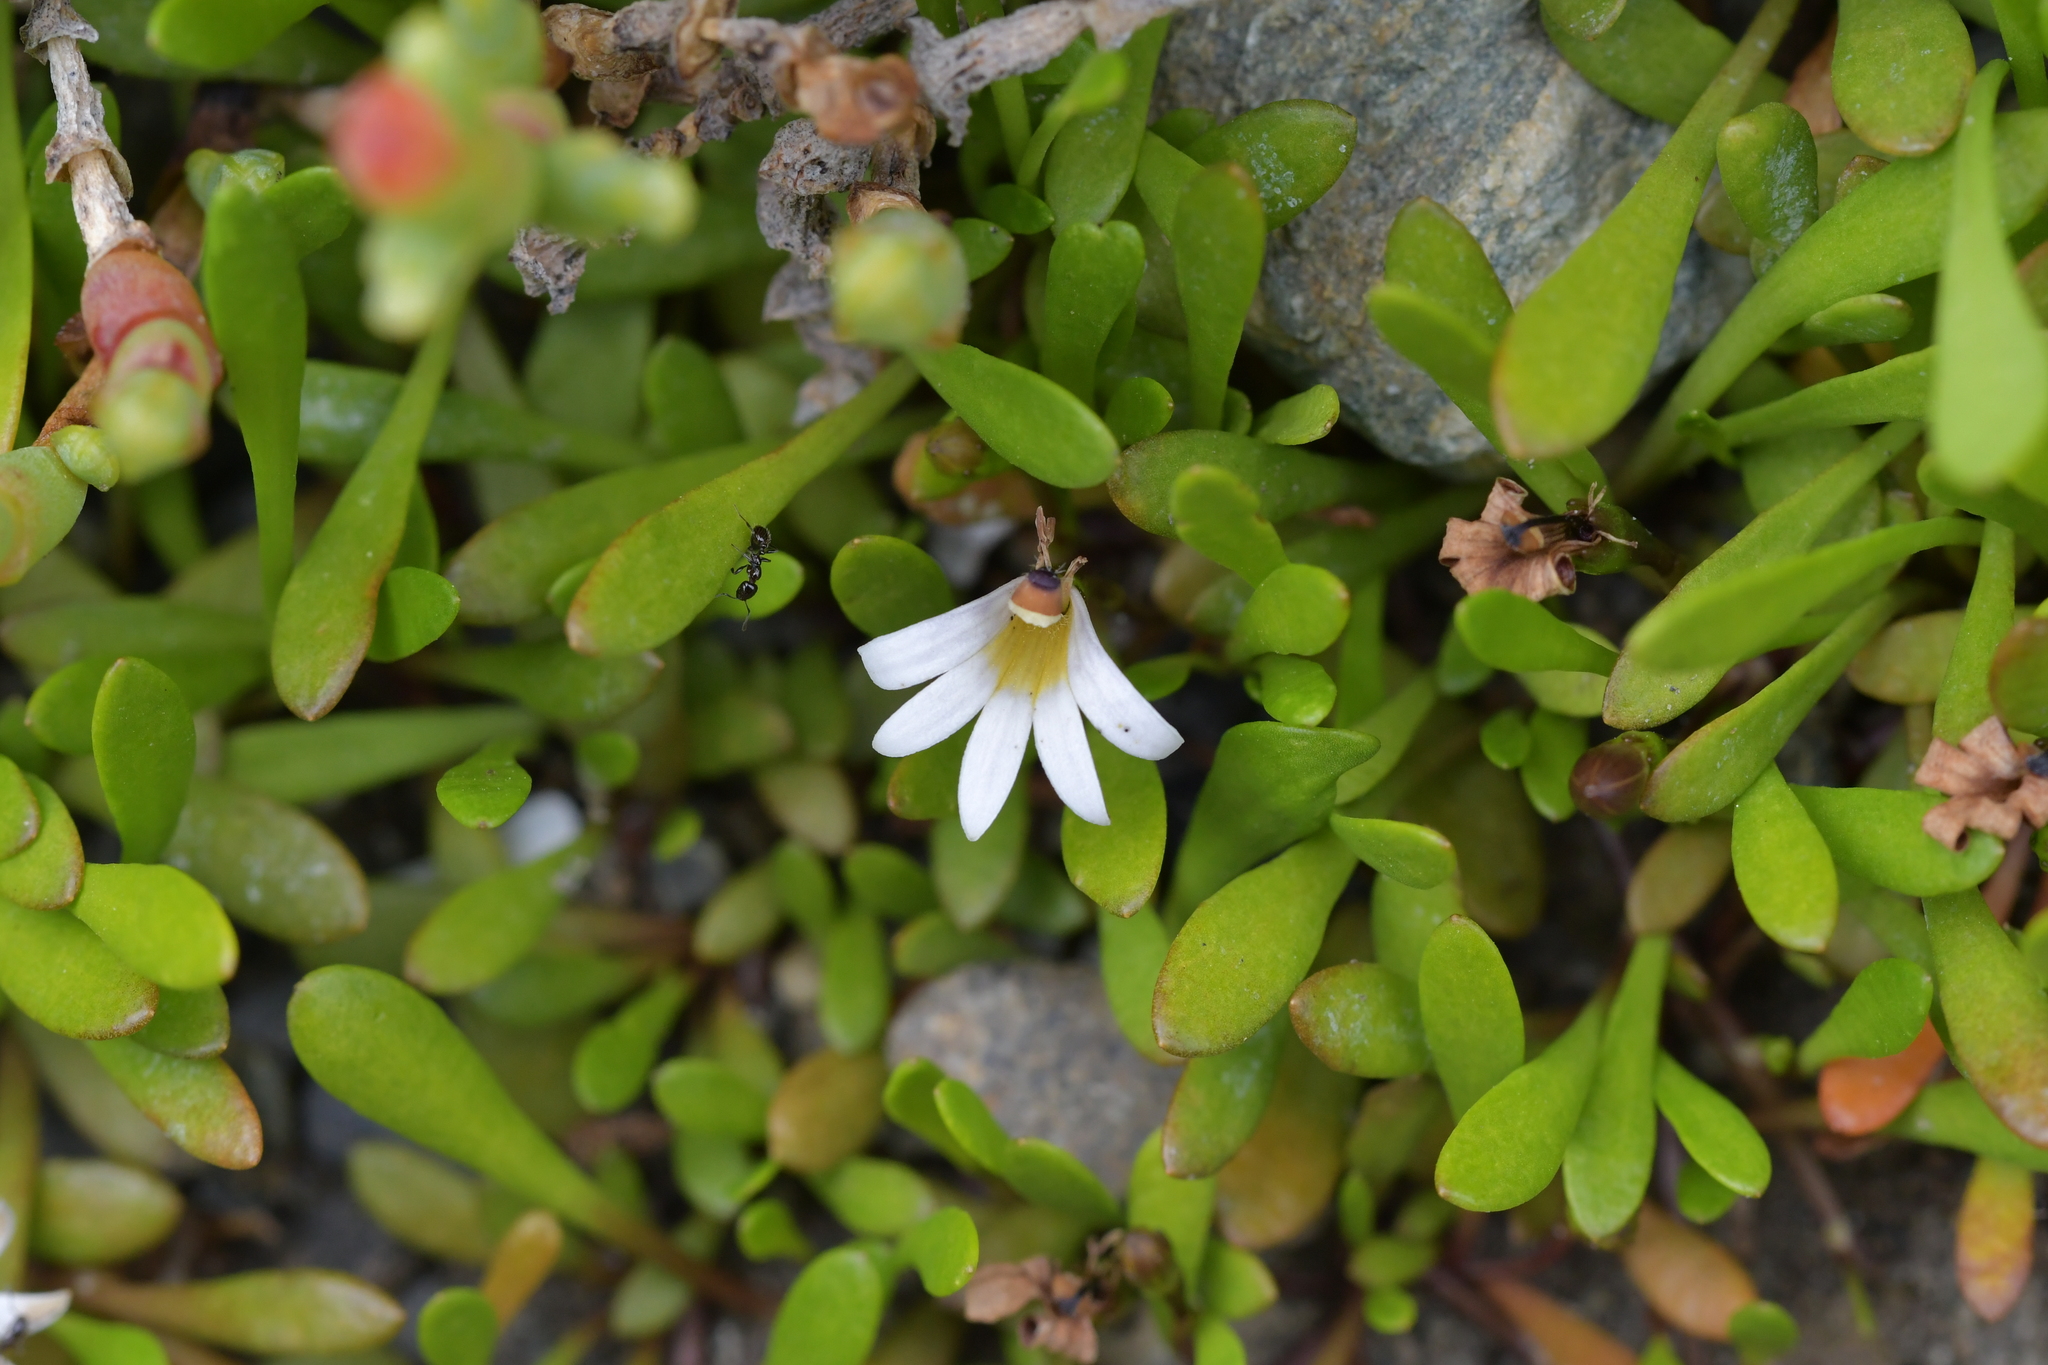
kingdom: Plantae
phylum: Tracheophyta
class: Magnoliopsida
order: Asterales
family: Goodeniaceae
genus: Goodenia
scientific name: Goodenia radicans
